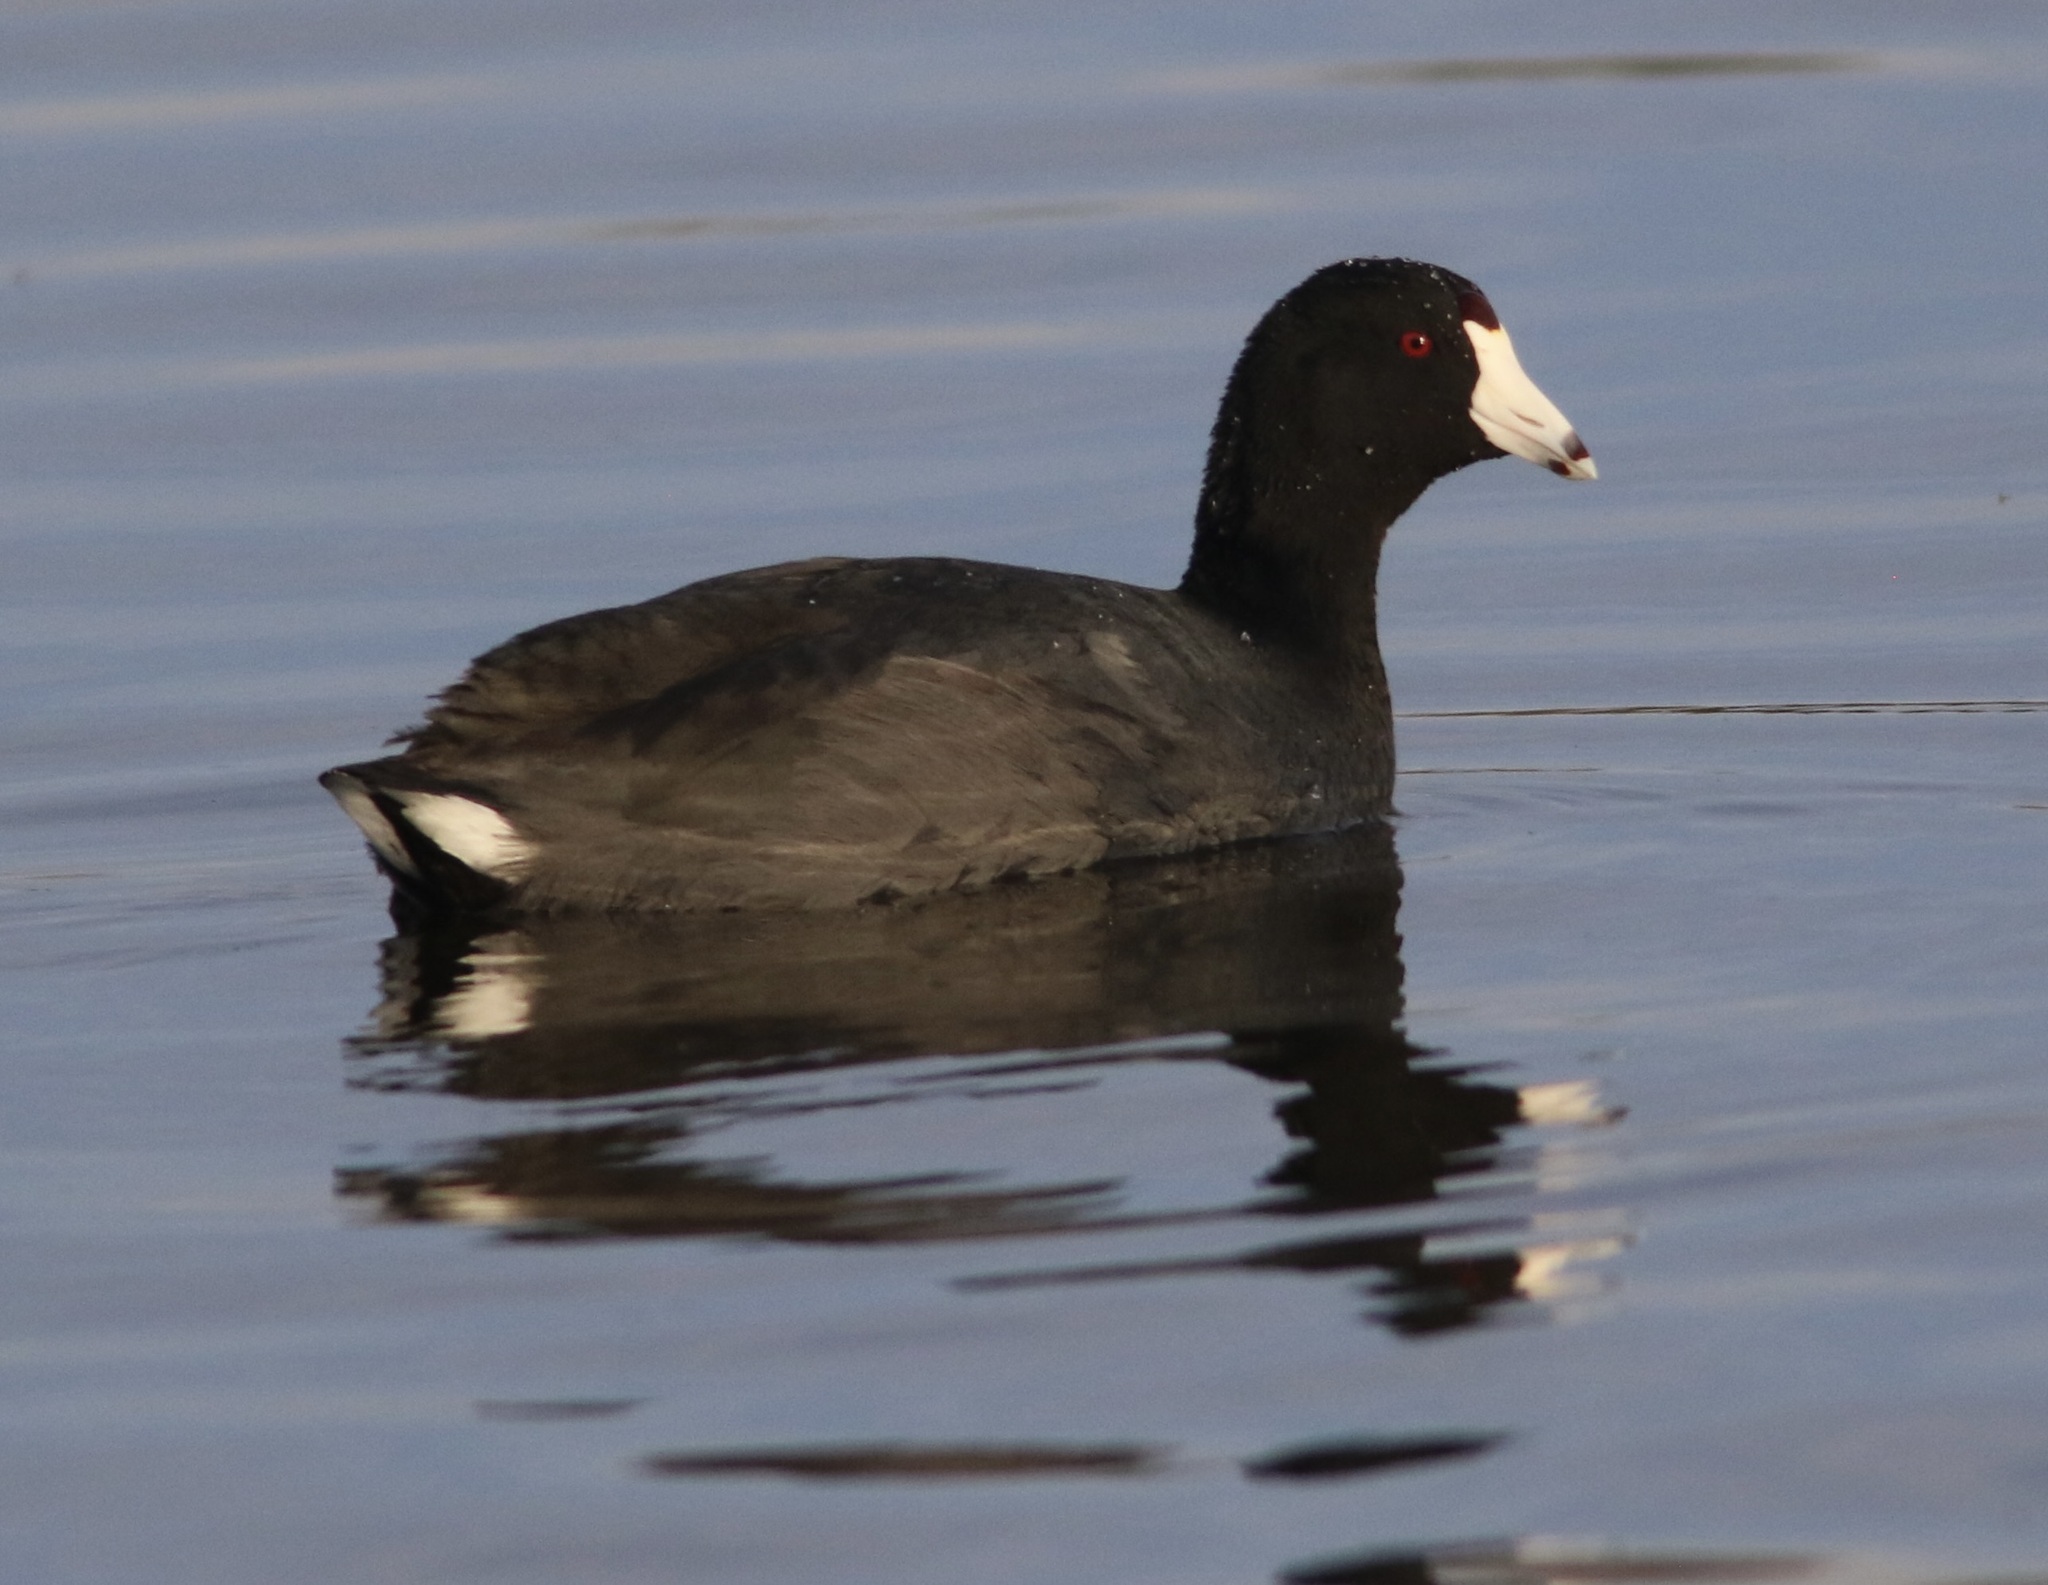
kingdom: Animalia
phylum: Chordata
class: Aves
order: Gruiformes
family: Rallidae
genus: Fulica
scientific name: Fulica americana
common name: American coot
